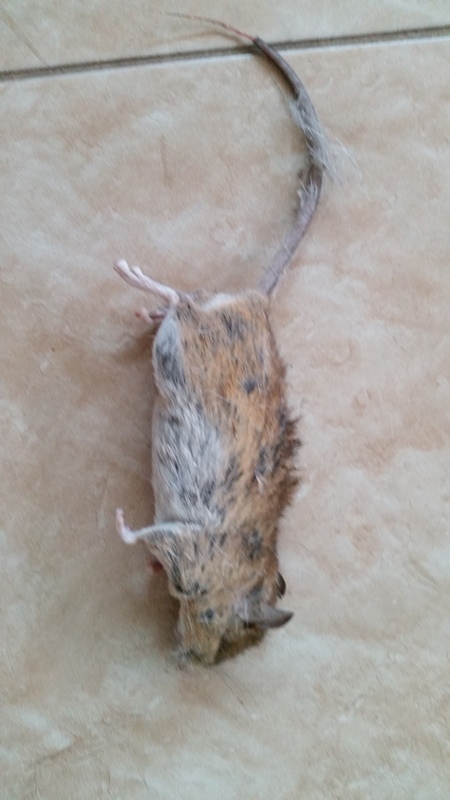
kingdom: Animalia
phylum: Chordata
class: Mammalia
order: Rodentia
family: Muridae
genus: Aethomys
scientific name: Aethomys chrysophilus
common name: Red veld aethomys
